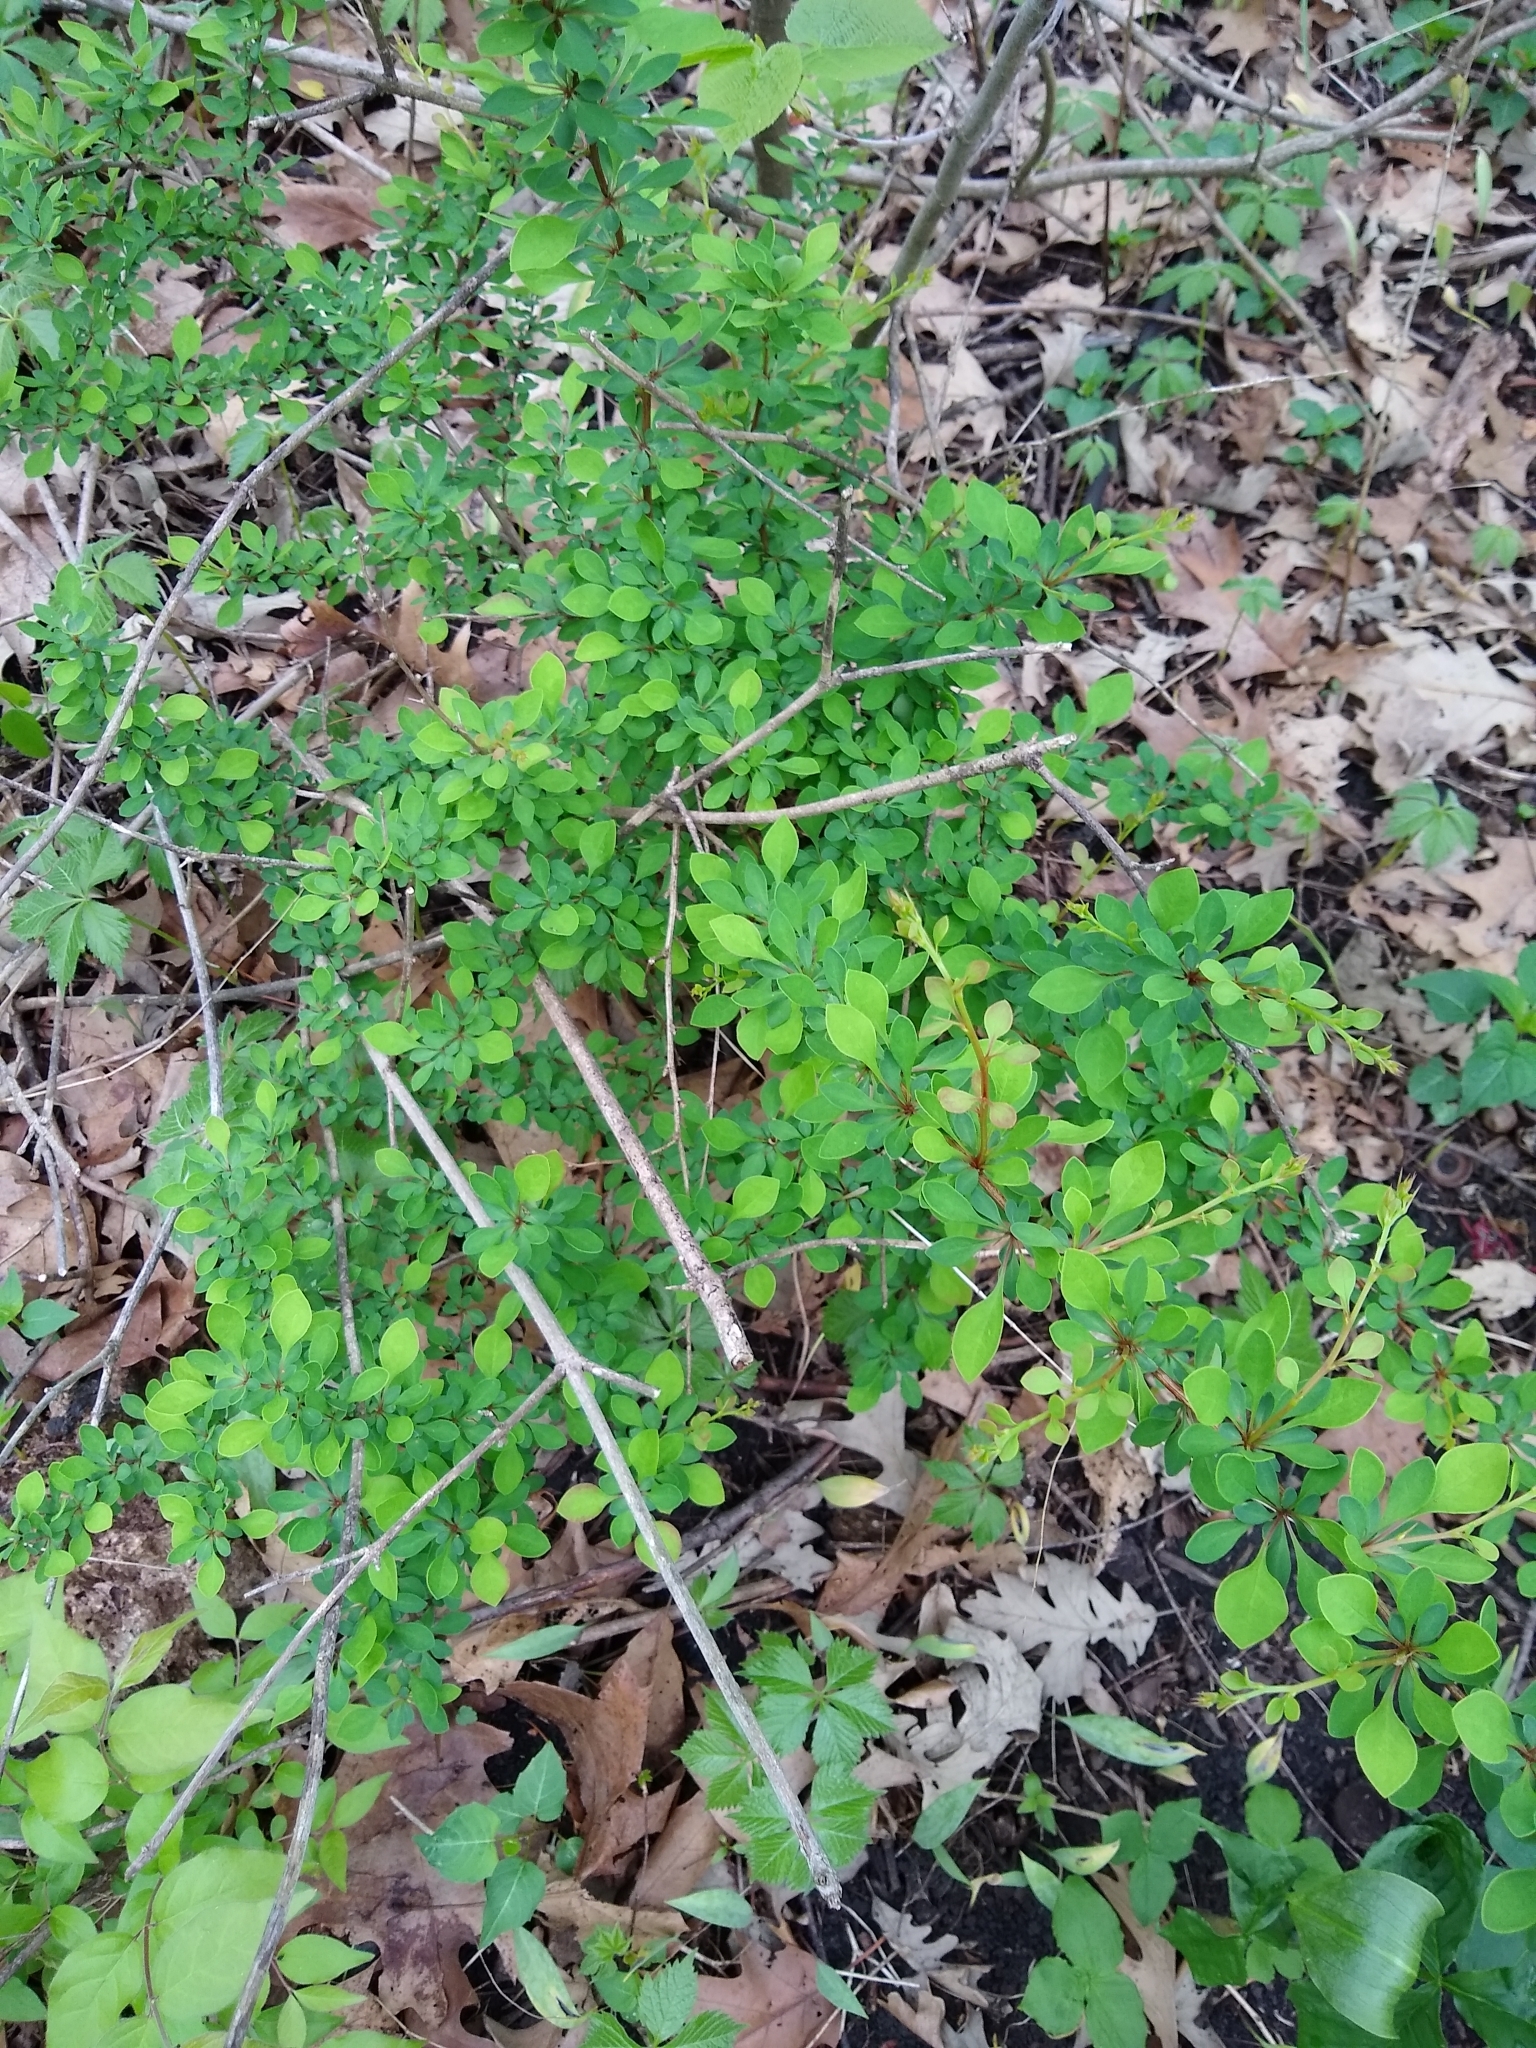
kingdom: Plantae
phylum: Tracheophyta
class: Magnoliopsida
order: Ranunculales
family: Berberidaceae
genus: Berberis
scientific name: Berberis thunbergii
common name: Japanese barberry
